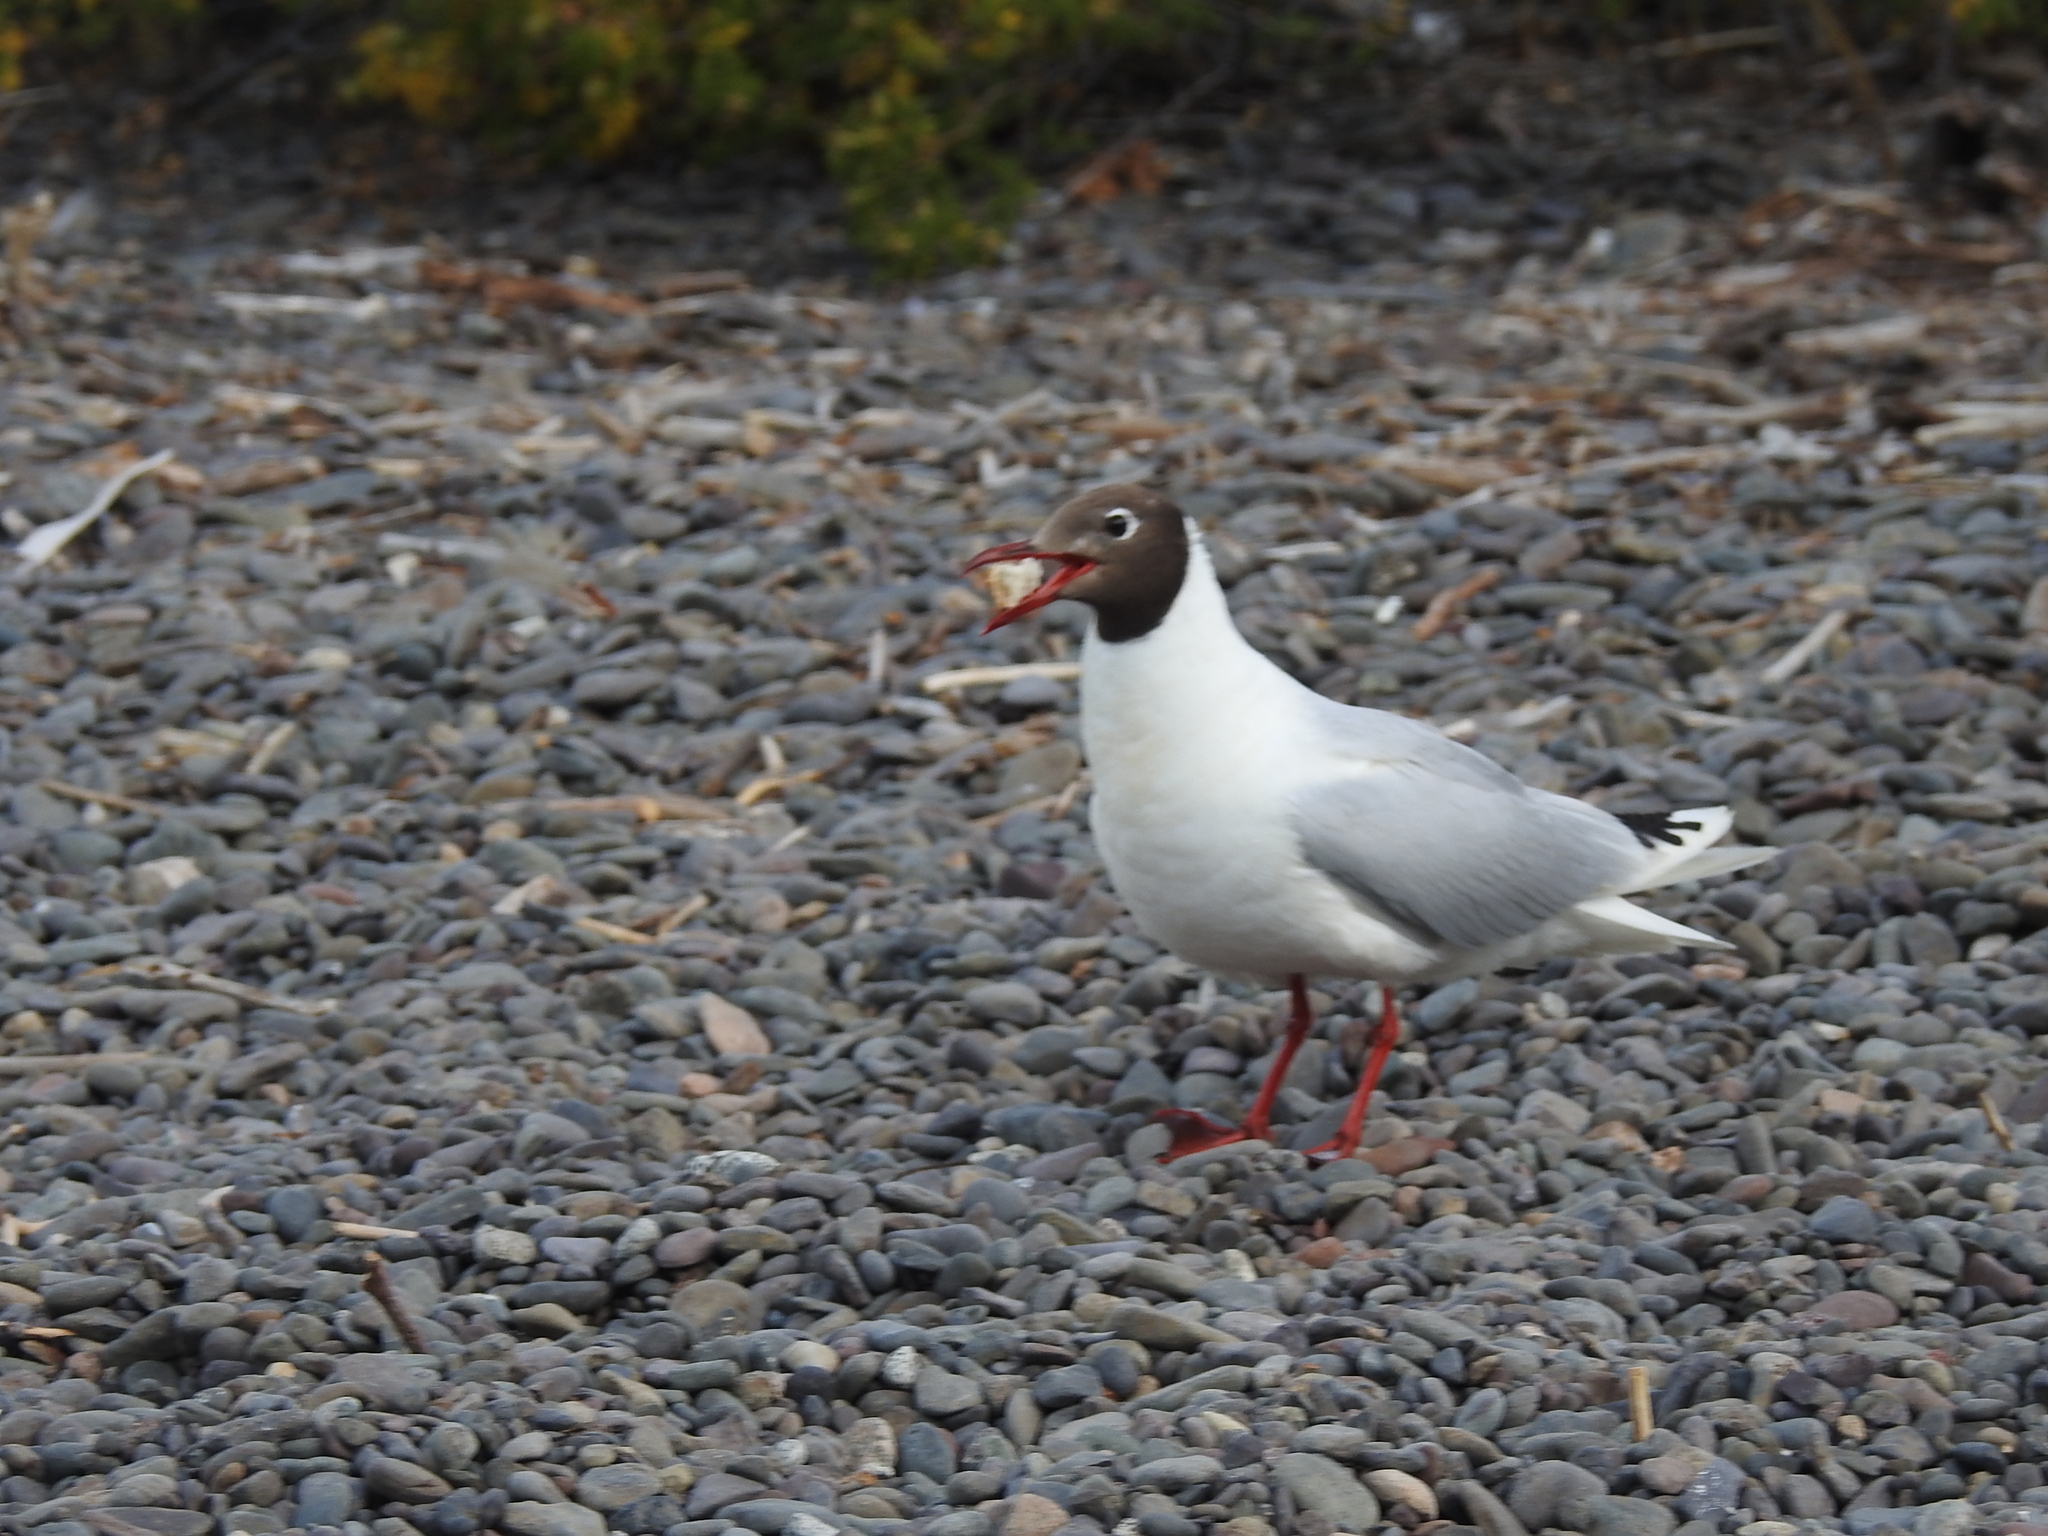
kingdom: Animalia
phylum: Chordata
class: Aves
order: Charadriiformes
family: Laridae
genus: Chroicocephalus
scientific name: Chroicocephalus maculipennis
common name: Brown-hooded gull
